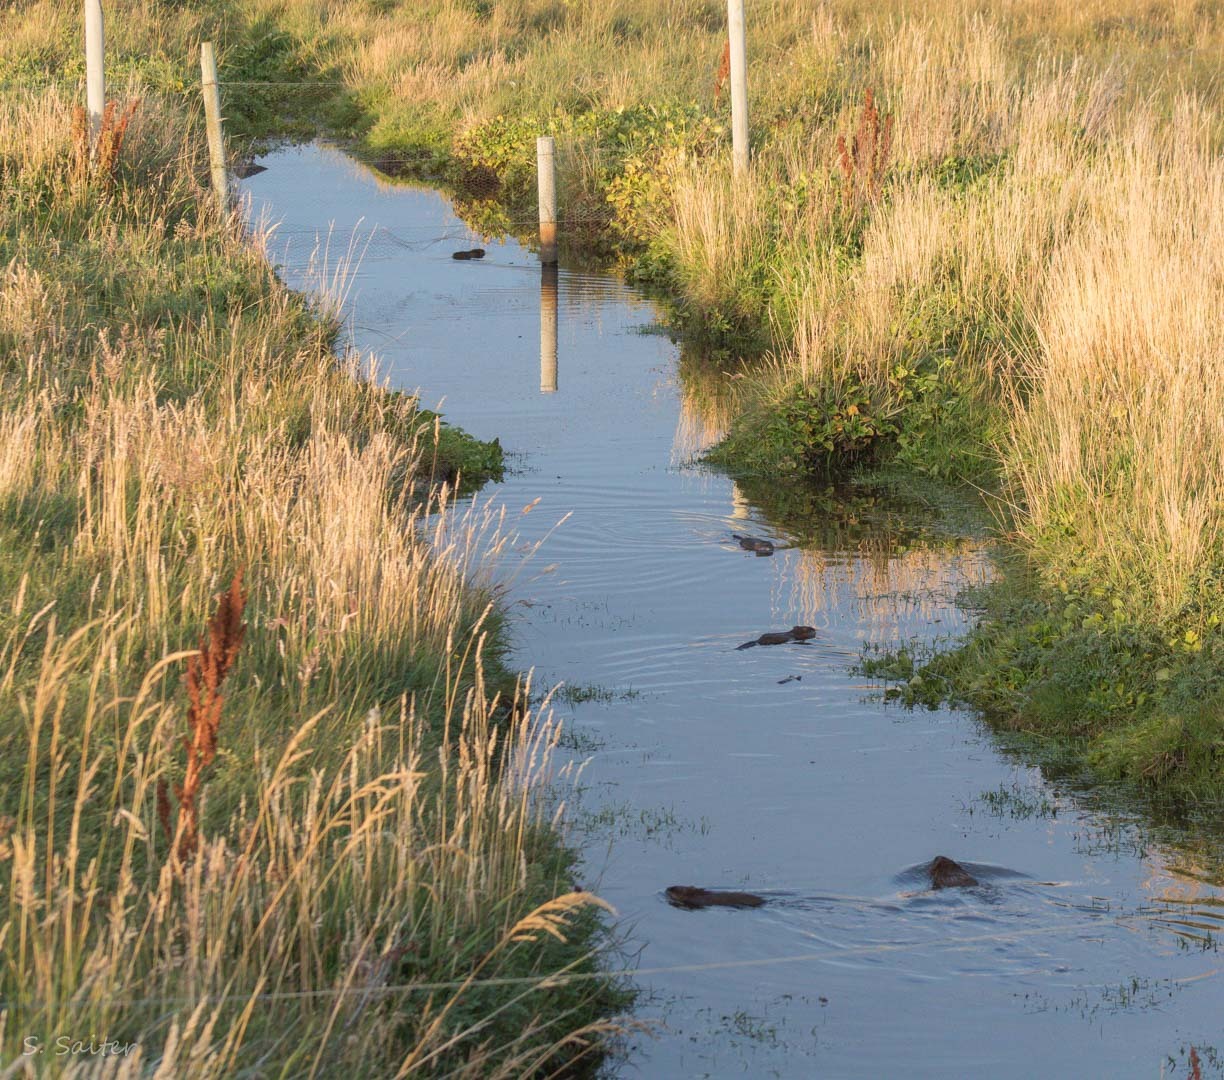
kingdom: Animalia
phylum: Chordata
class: Mammalia
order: Rodentia
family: Cricetidae
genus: Ondatra
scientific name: Ondatra zibethicus
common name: Muskrat
